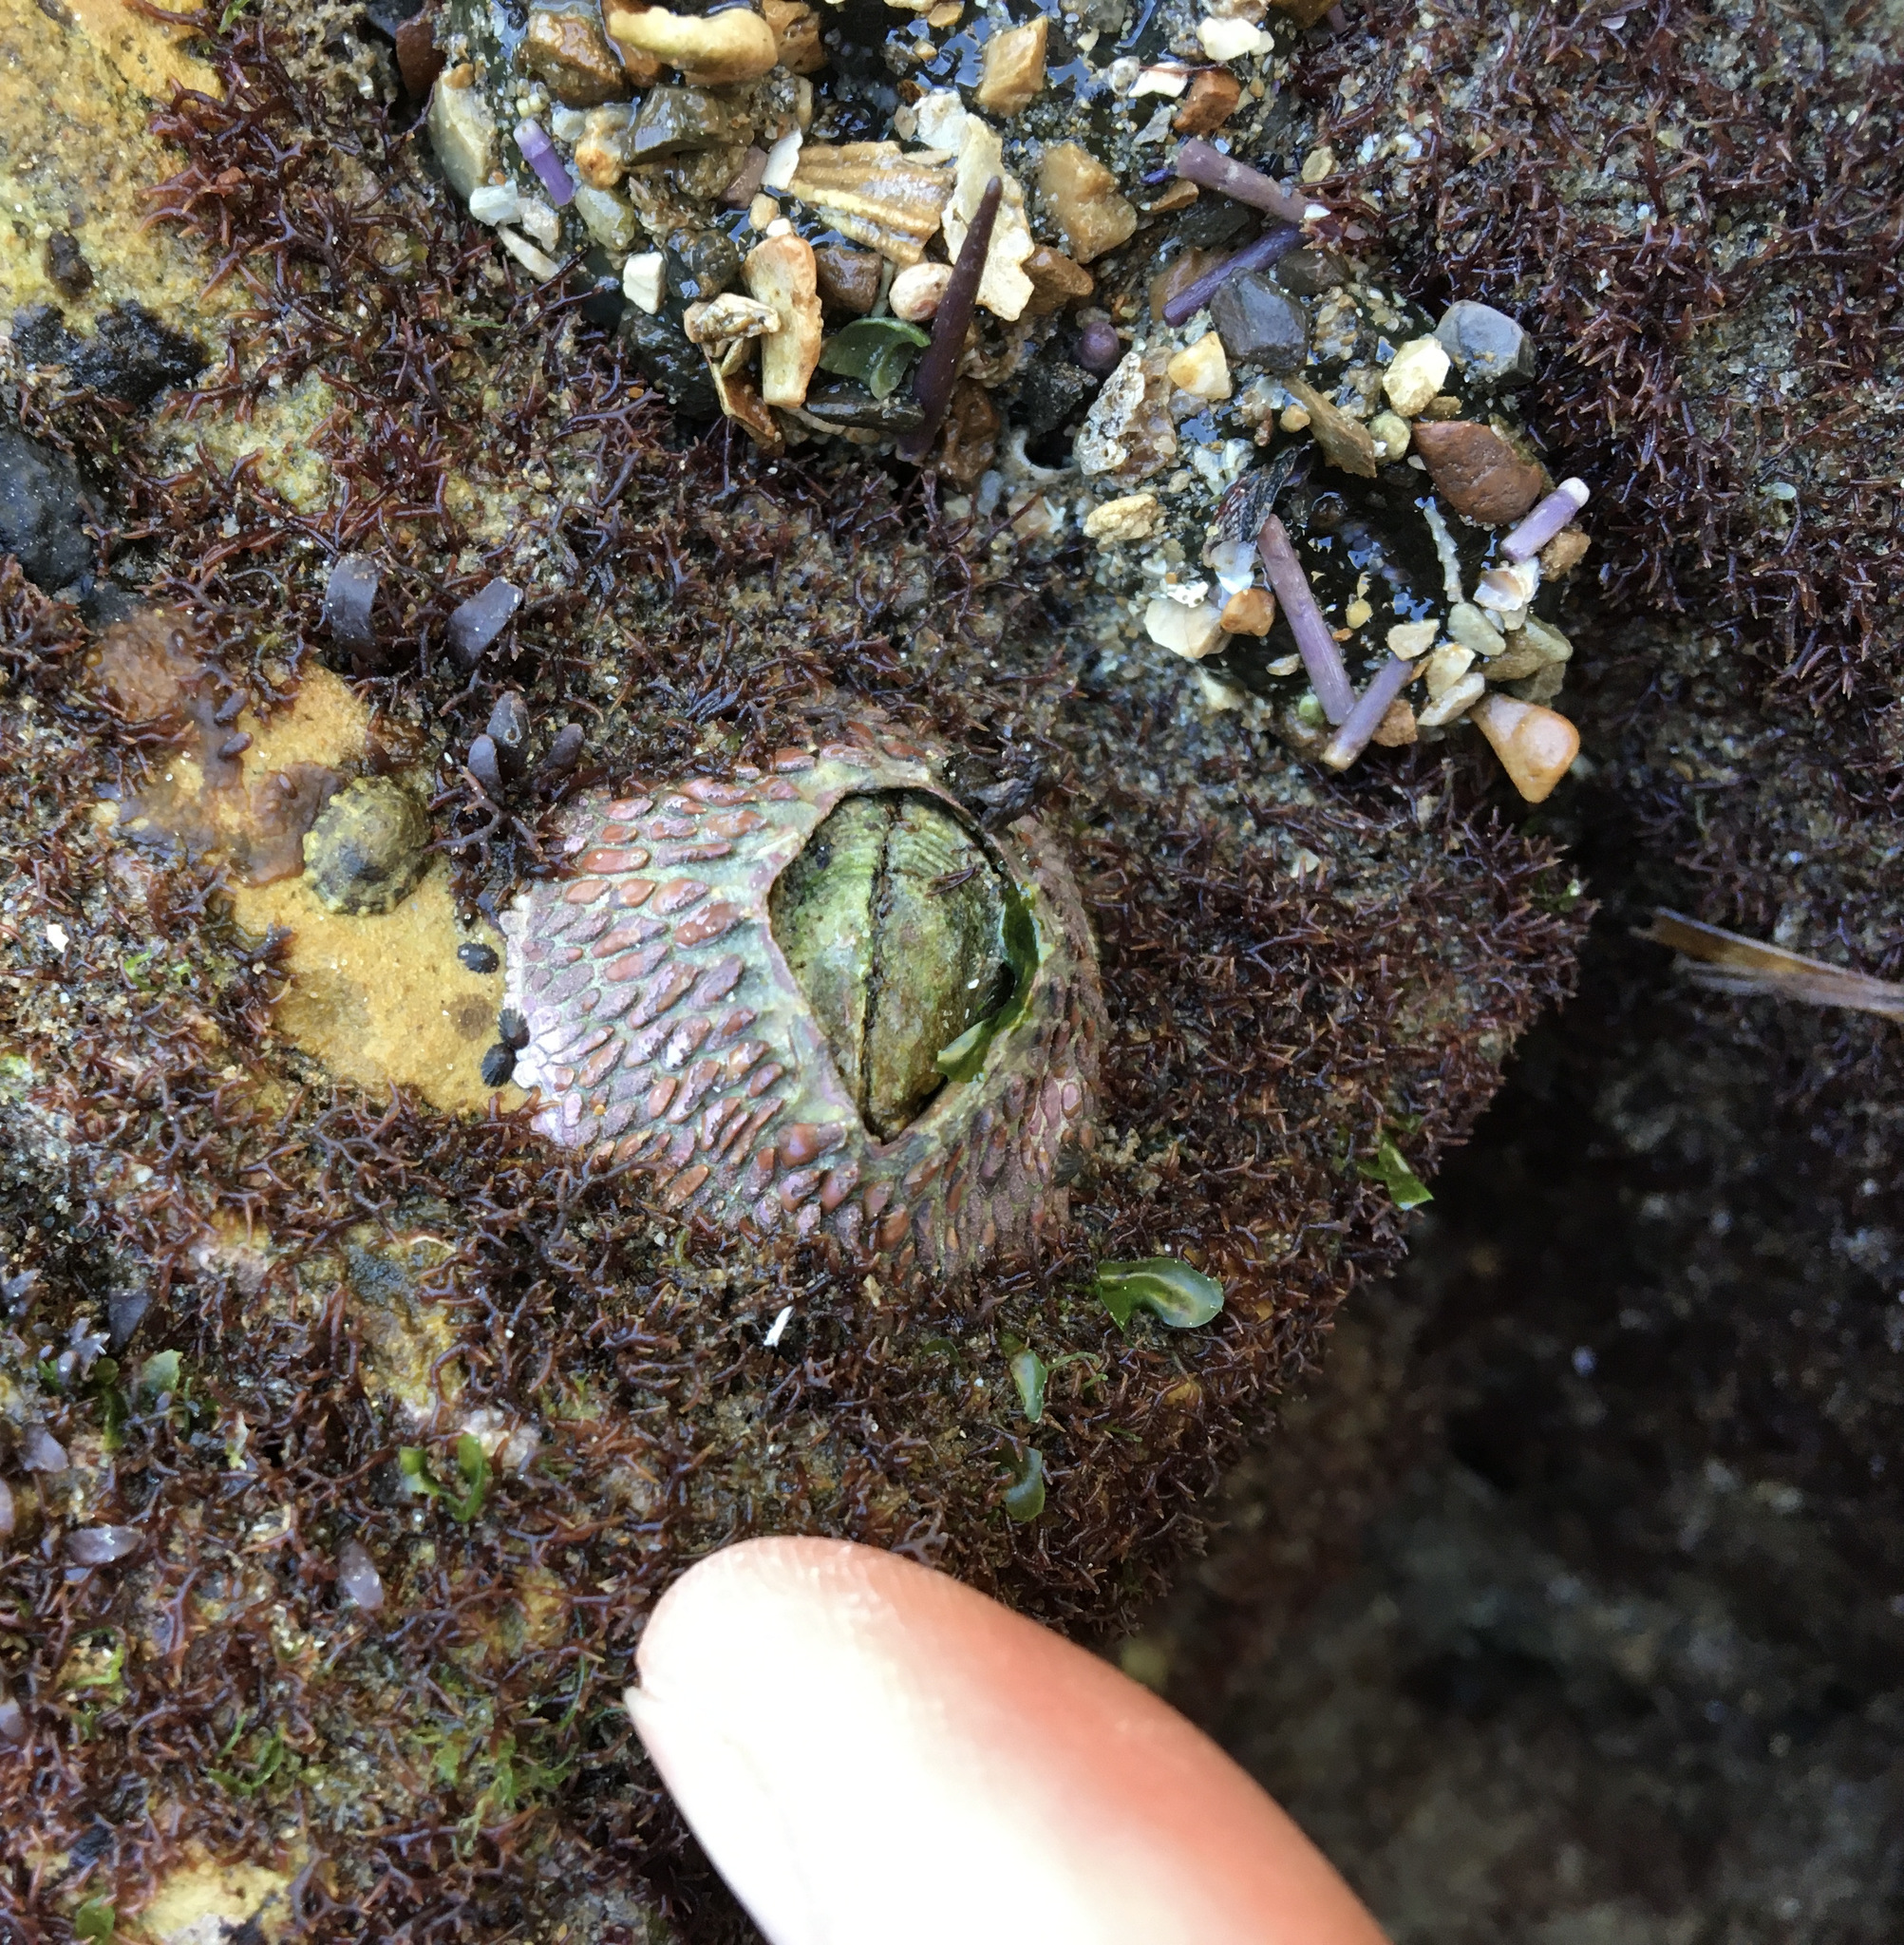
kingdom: Animalia
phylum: Arthropoda
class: Maxillopoda
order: Sessilia
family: Tetraclitidae
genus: Tetraclita
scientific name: Tetraclita rubescens
